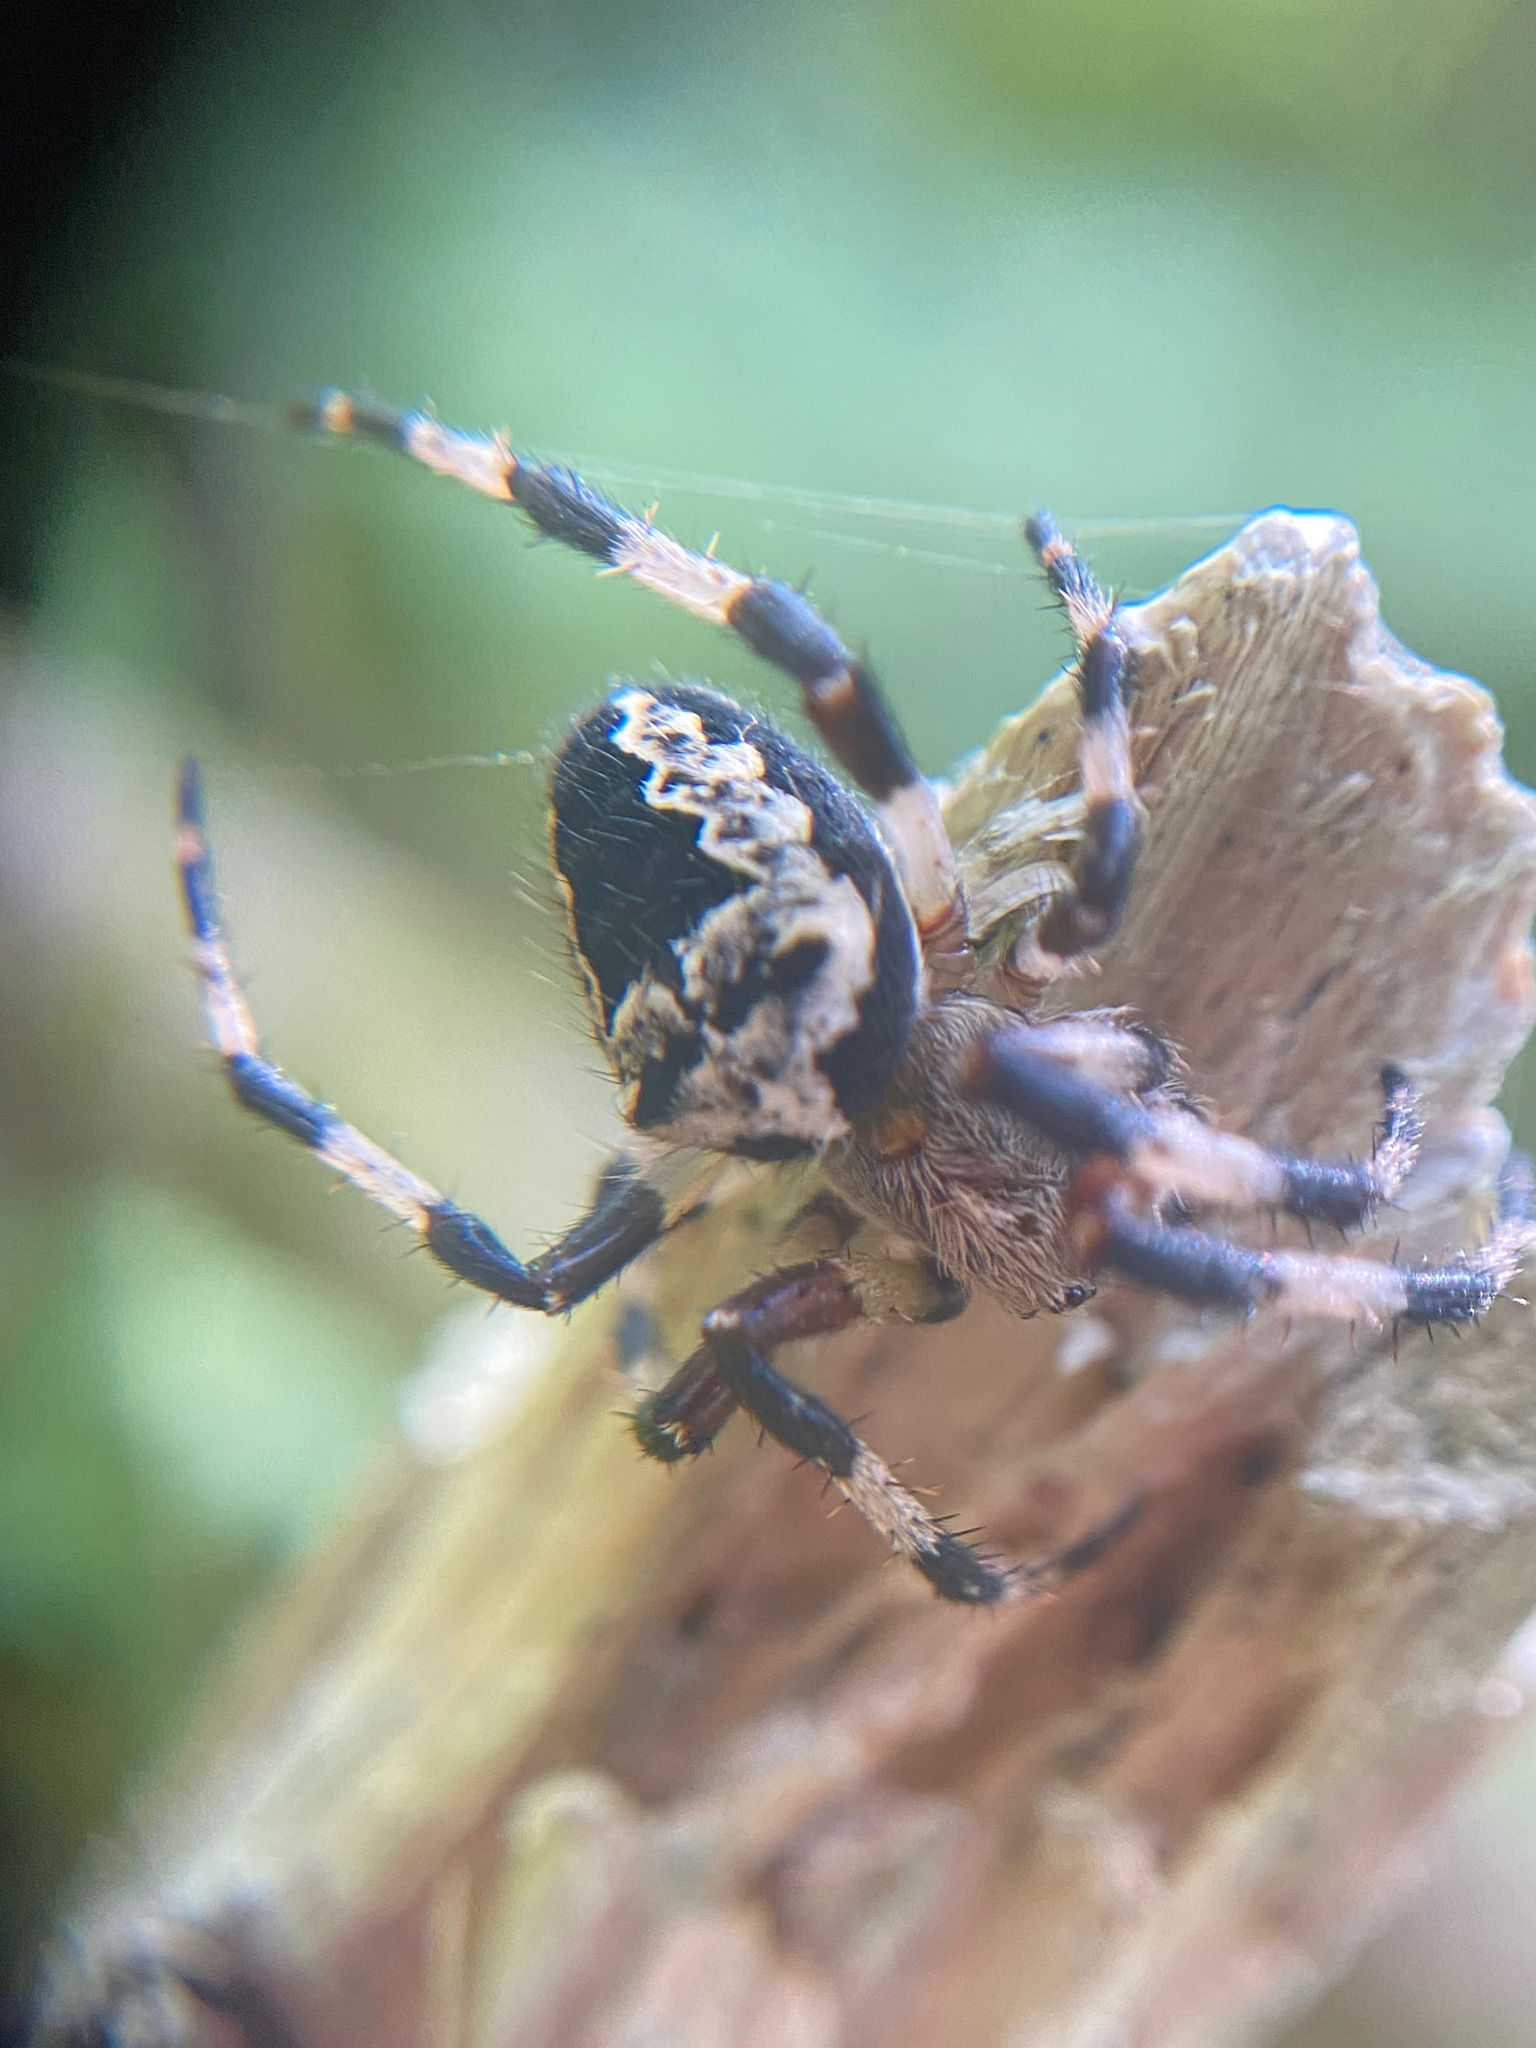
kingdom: Animalia
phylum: Arthropoda
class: Arachnida
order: Araneae
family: Araneidae
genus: Araneus
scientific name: Araneus nordmanni
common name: Nordmann's orbweaver
